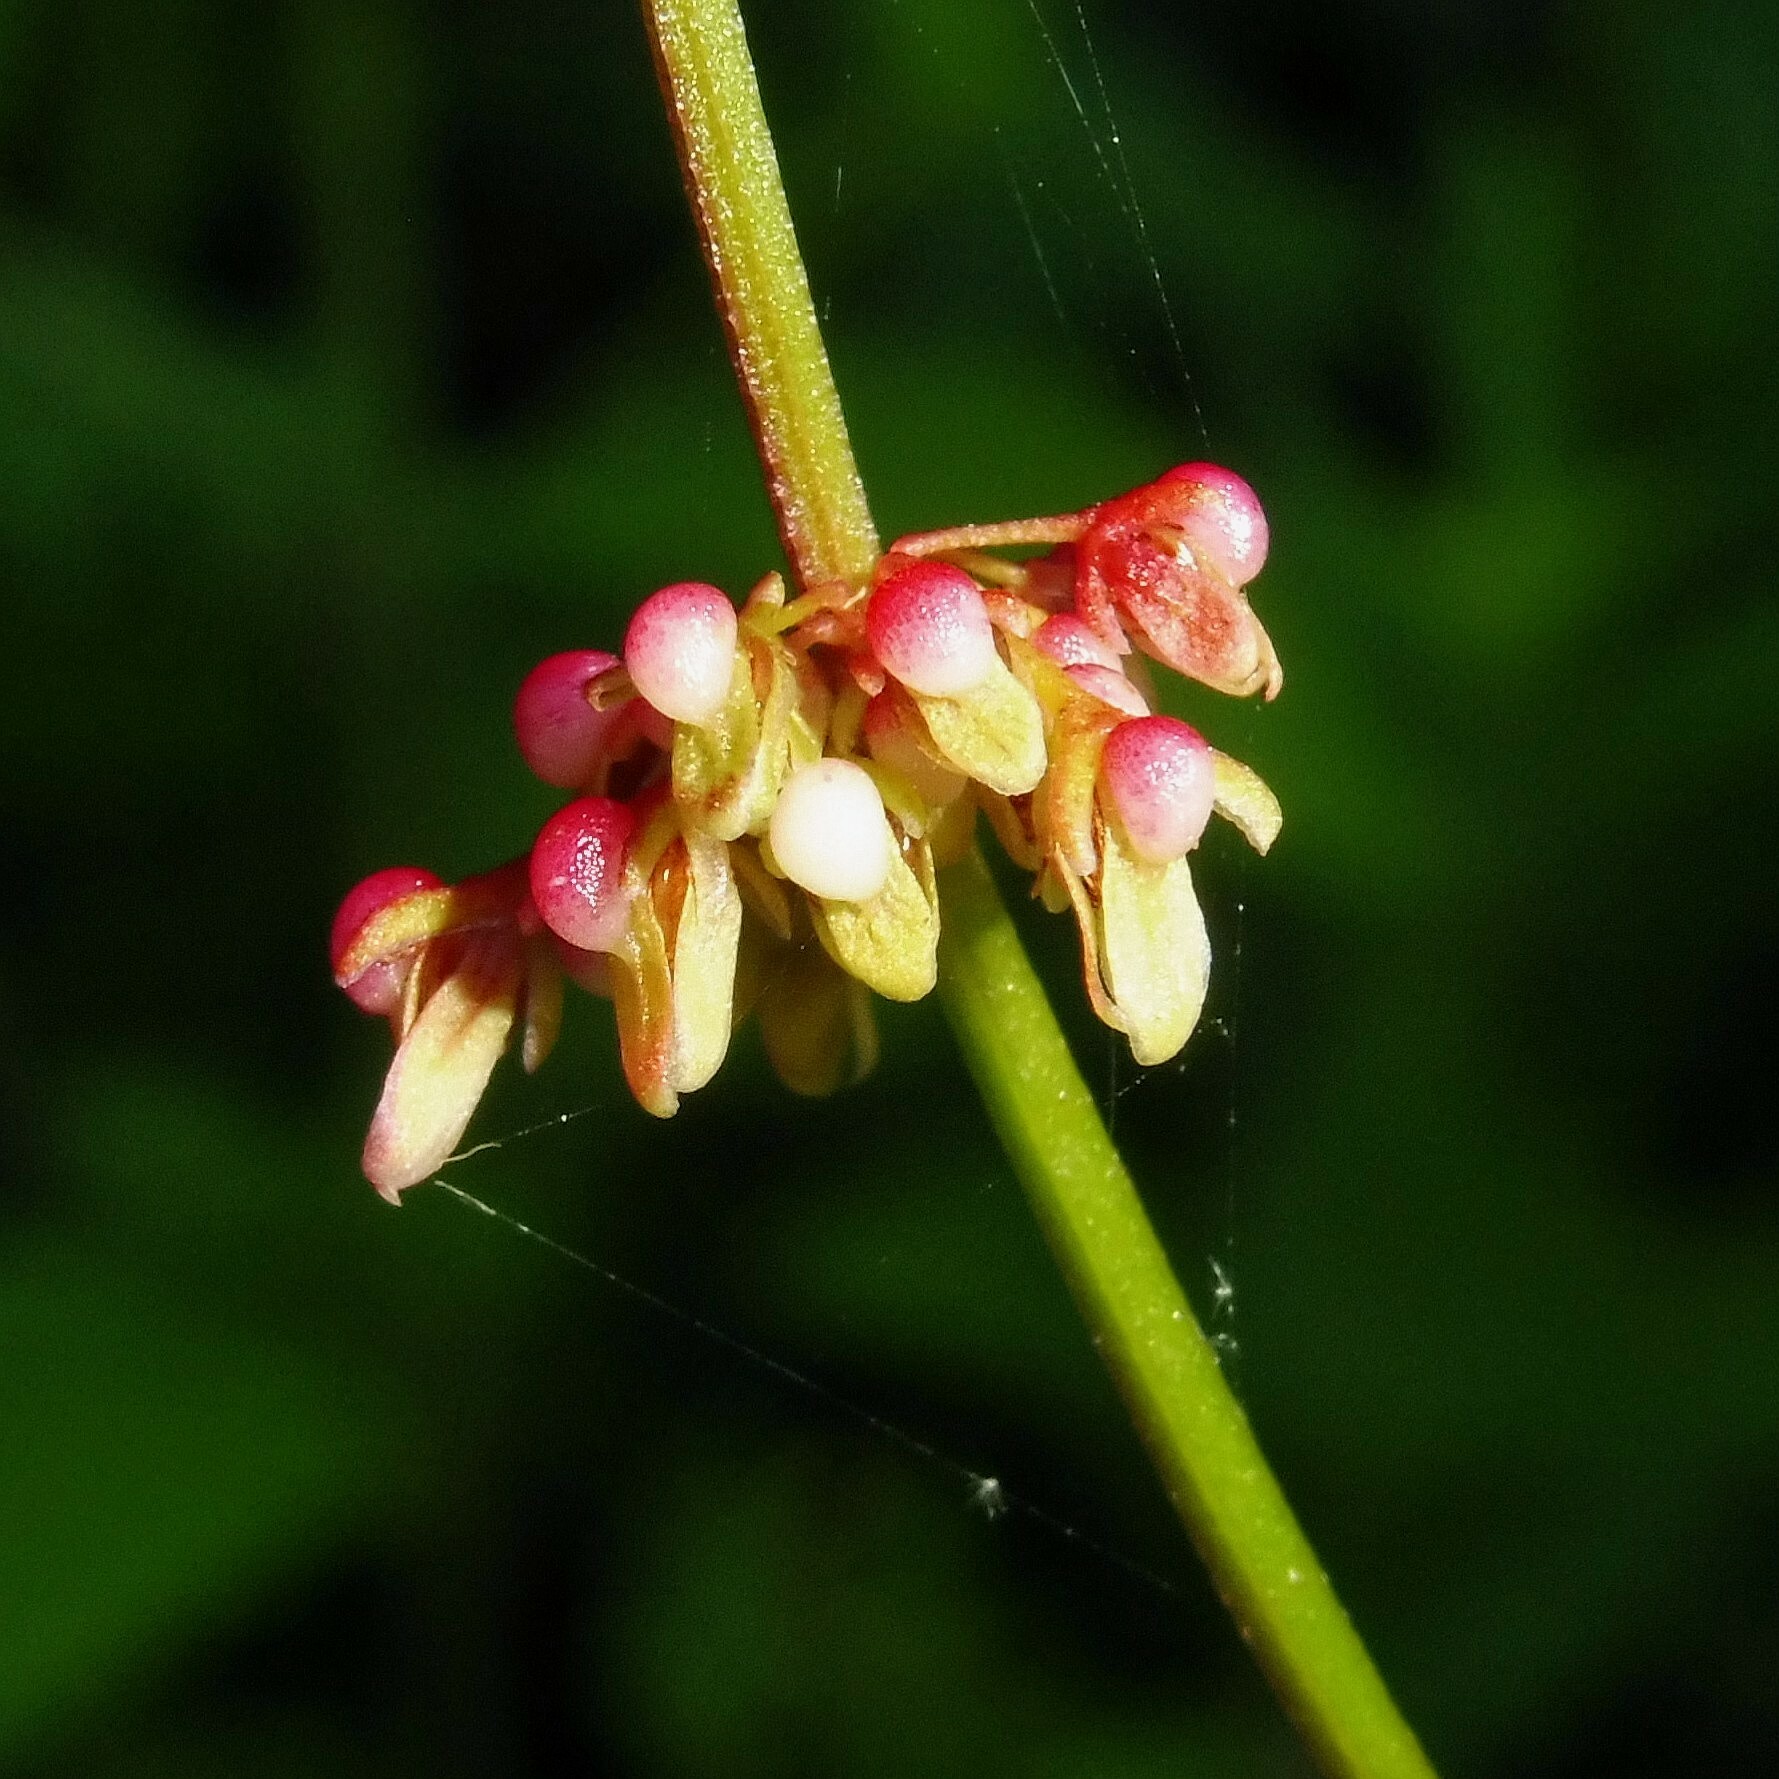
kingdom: Plantae
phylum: Tracheophyta
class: Magnoliopsida
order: Caryophyllales
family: Polygonaceae
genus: Rumex
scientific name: Rumex conglomeratus
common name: Clustered dock
